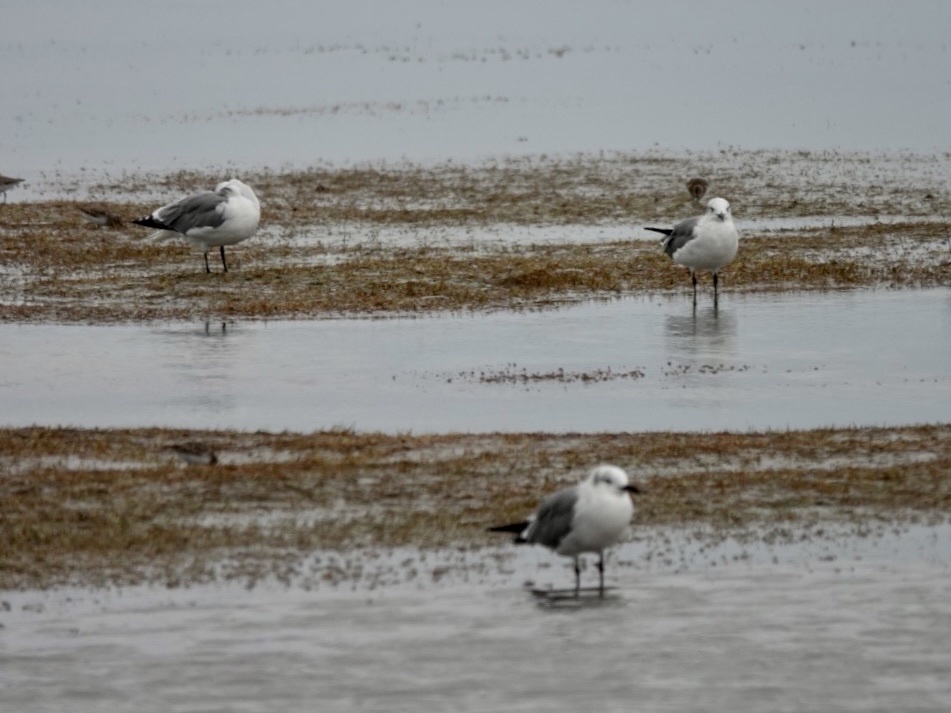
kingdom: Animalia
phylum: Chordata
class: Aves
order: Charadriiformes
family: Laridae
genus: Leucophaeus
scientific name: Leucophaeus atricilla
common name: Laughing gull
